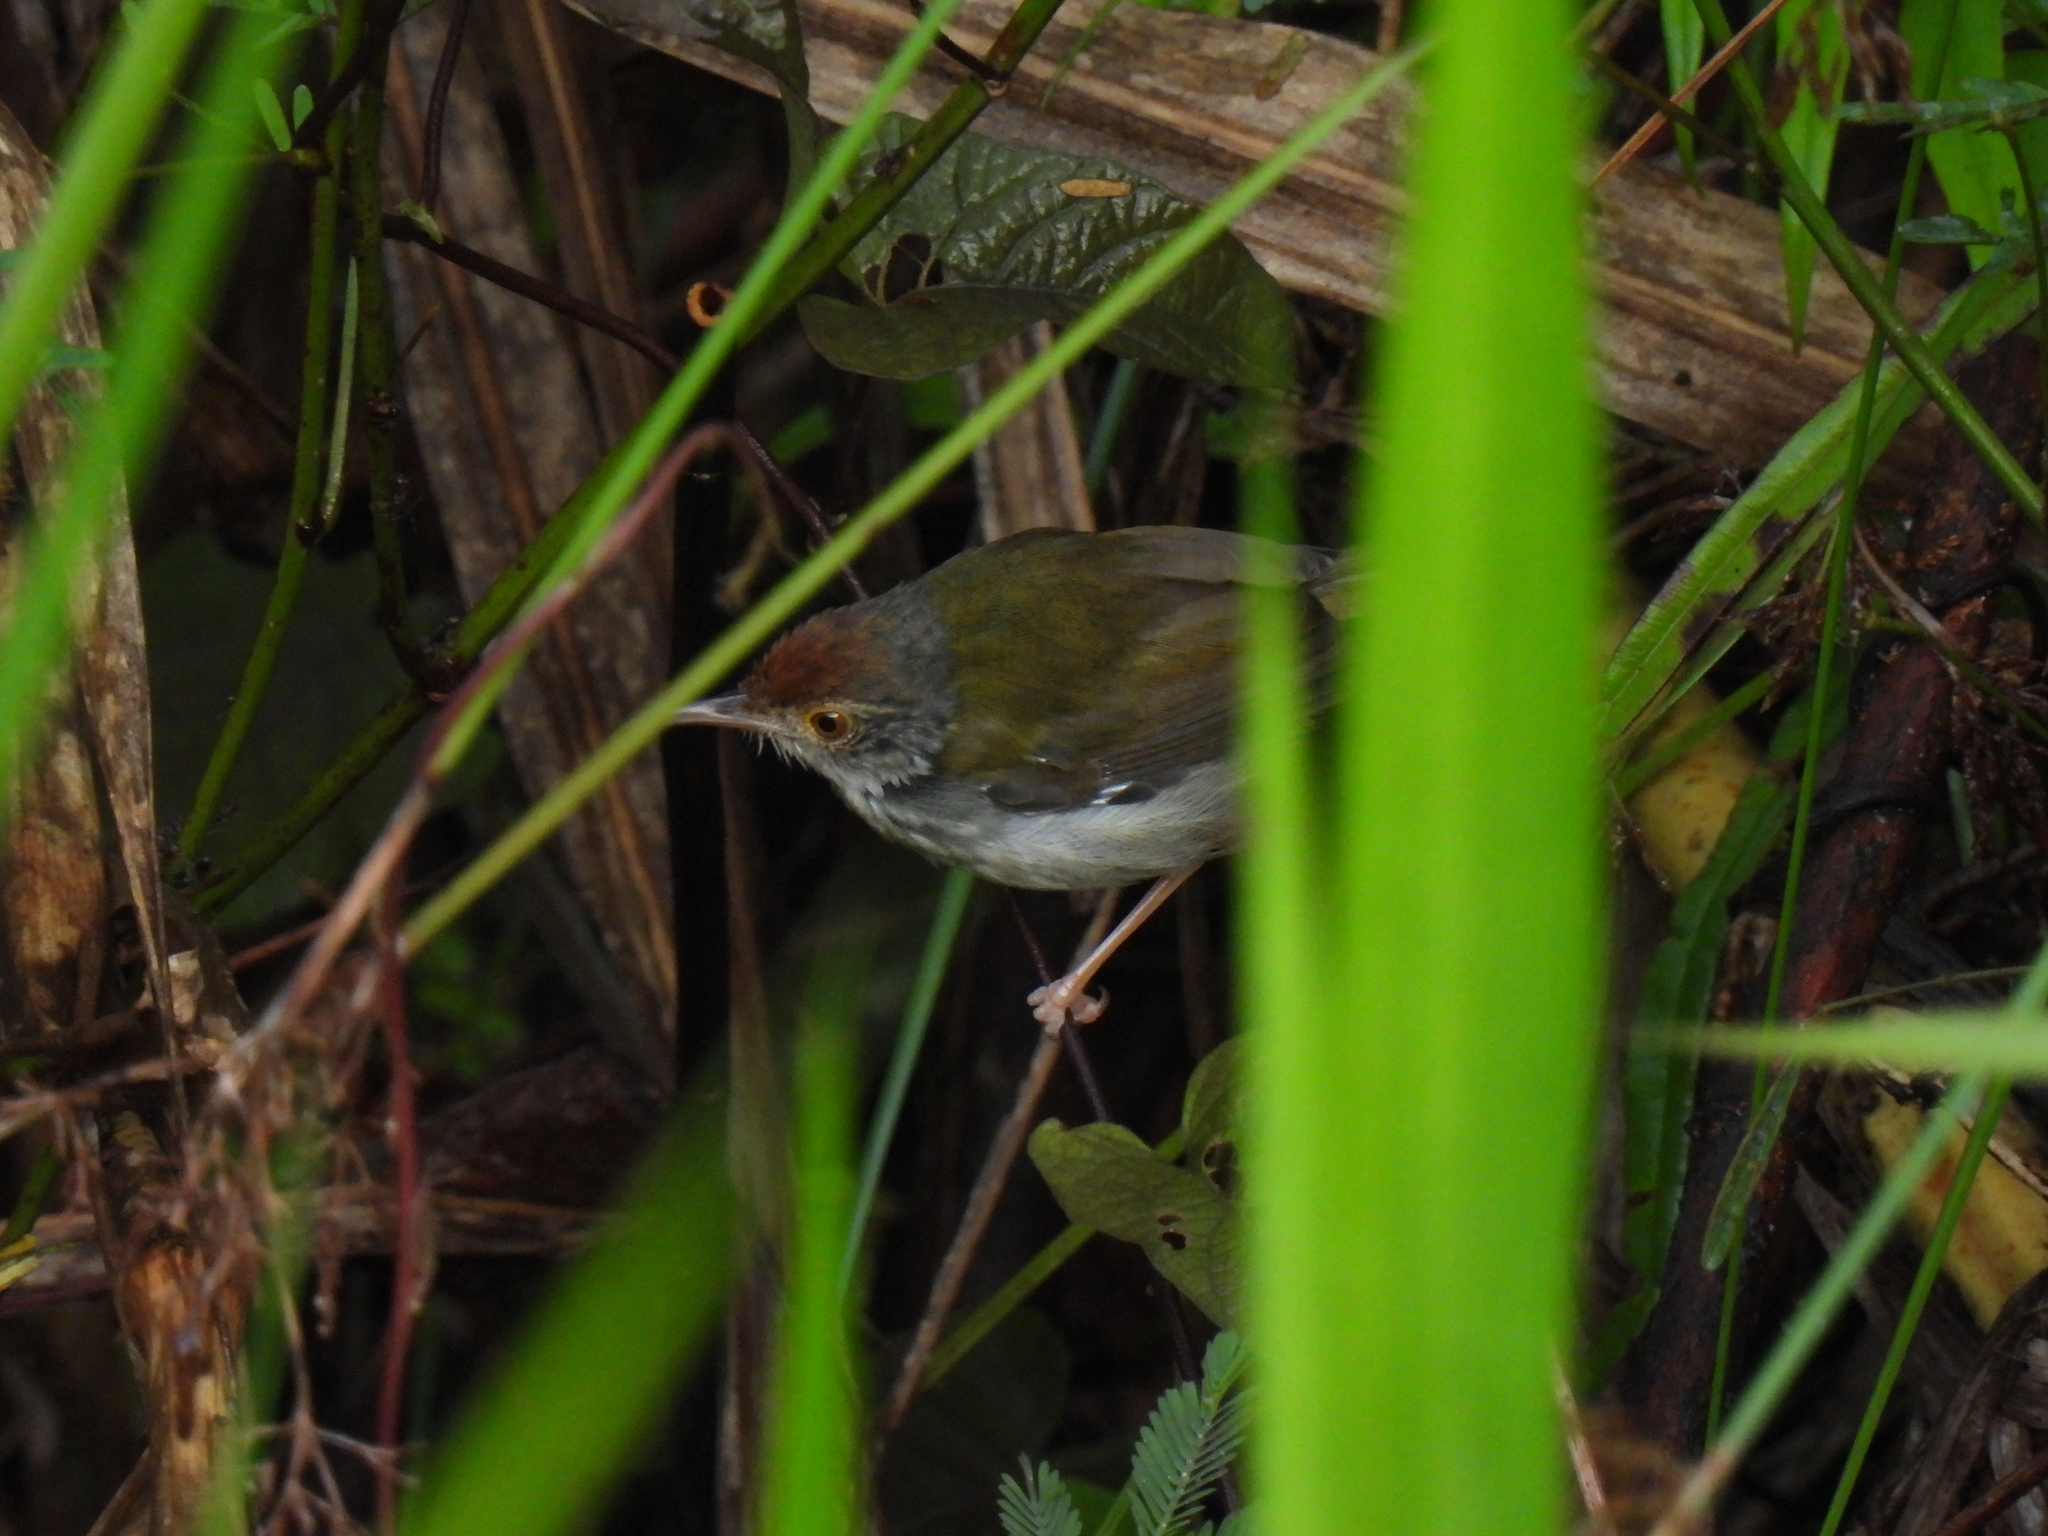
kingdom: Animalia
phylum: Chordata
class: Aves
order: Passeriformes
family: Cisticolidae
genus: Orthotomus
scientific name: Orthotomus sutorius
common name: Common tailorbird
